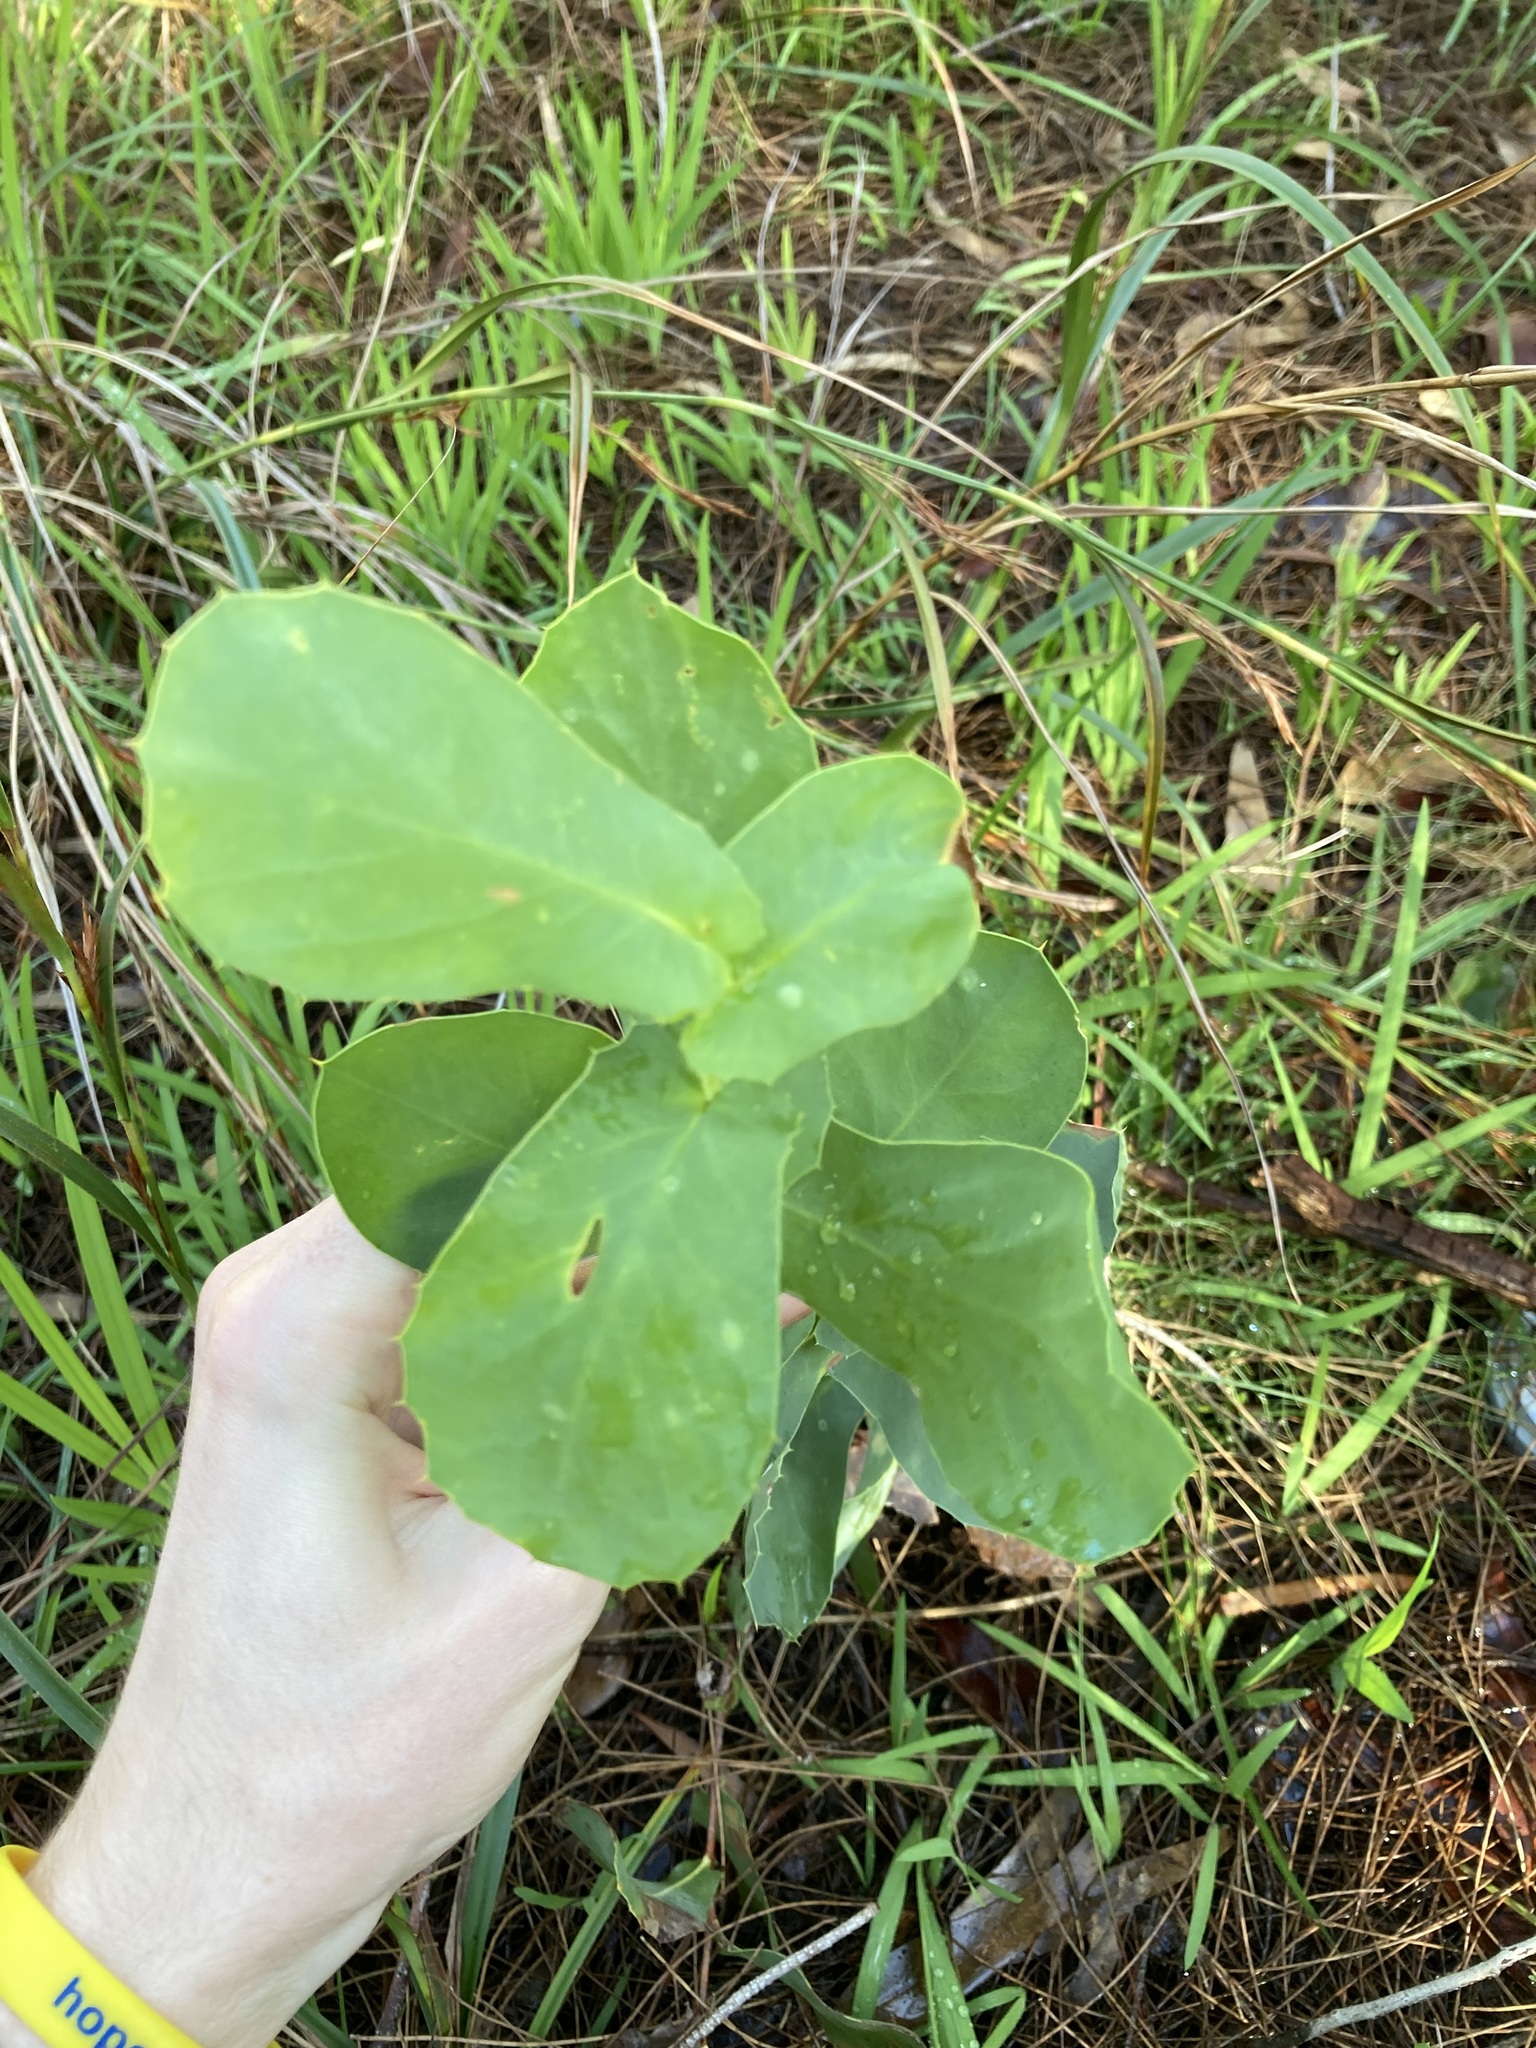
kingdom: Plantae
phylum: Tracheophyta
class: Magnoliopsida
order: Proteales
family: Proteaceae
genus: Hakea
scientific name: Hakea prostrata
